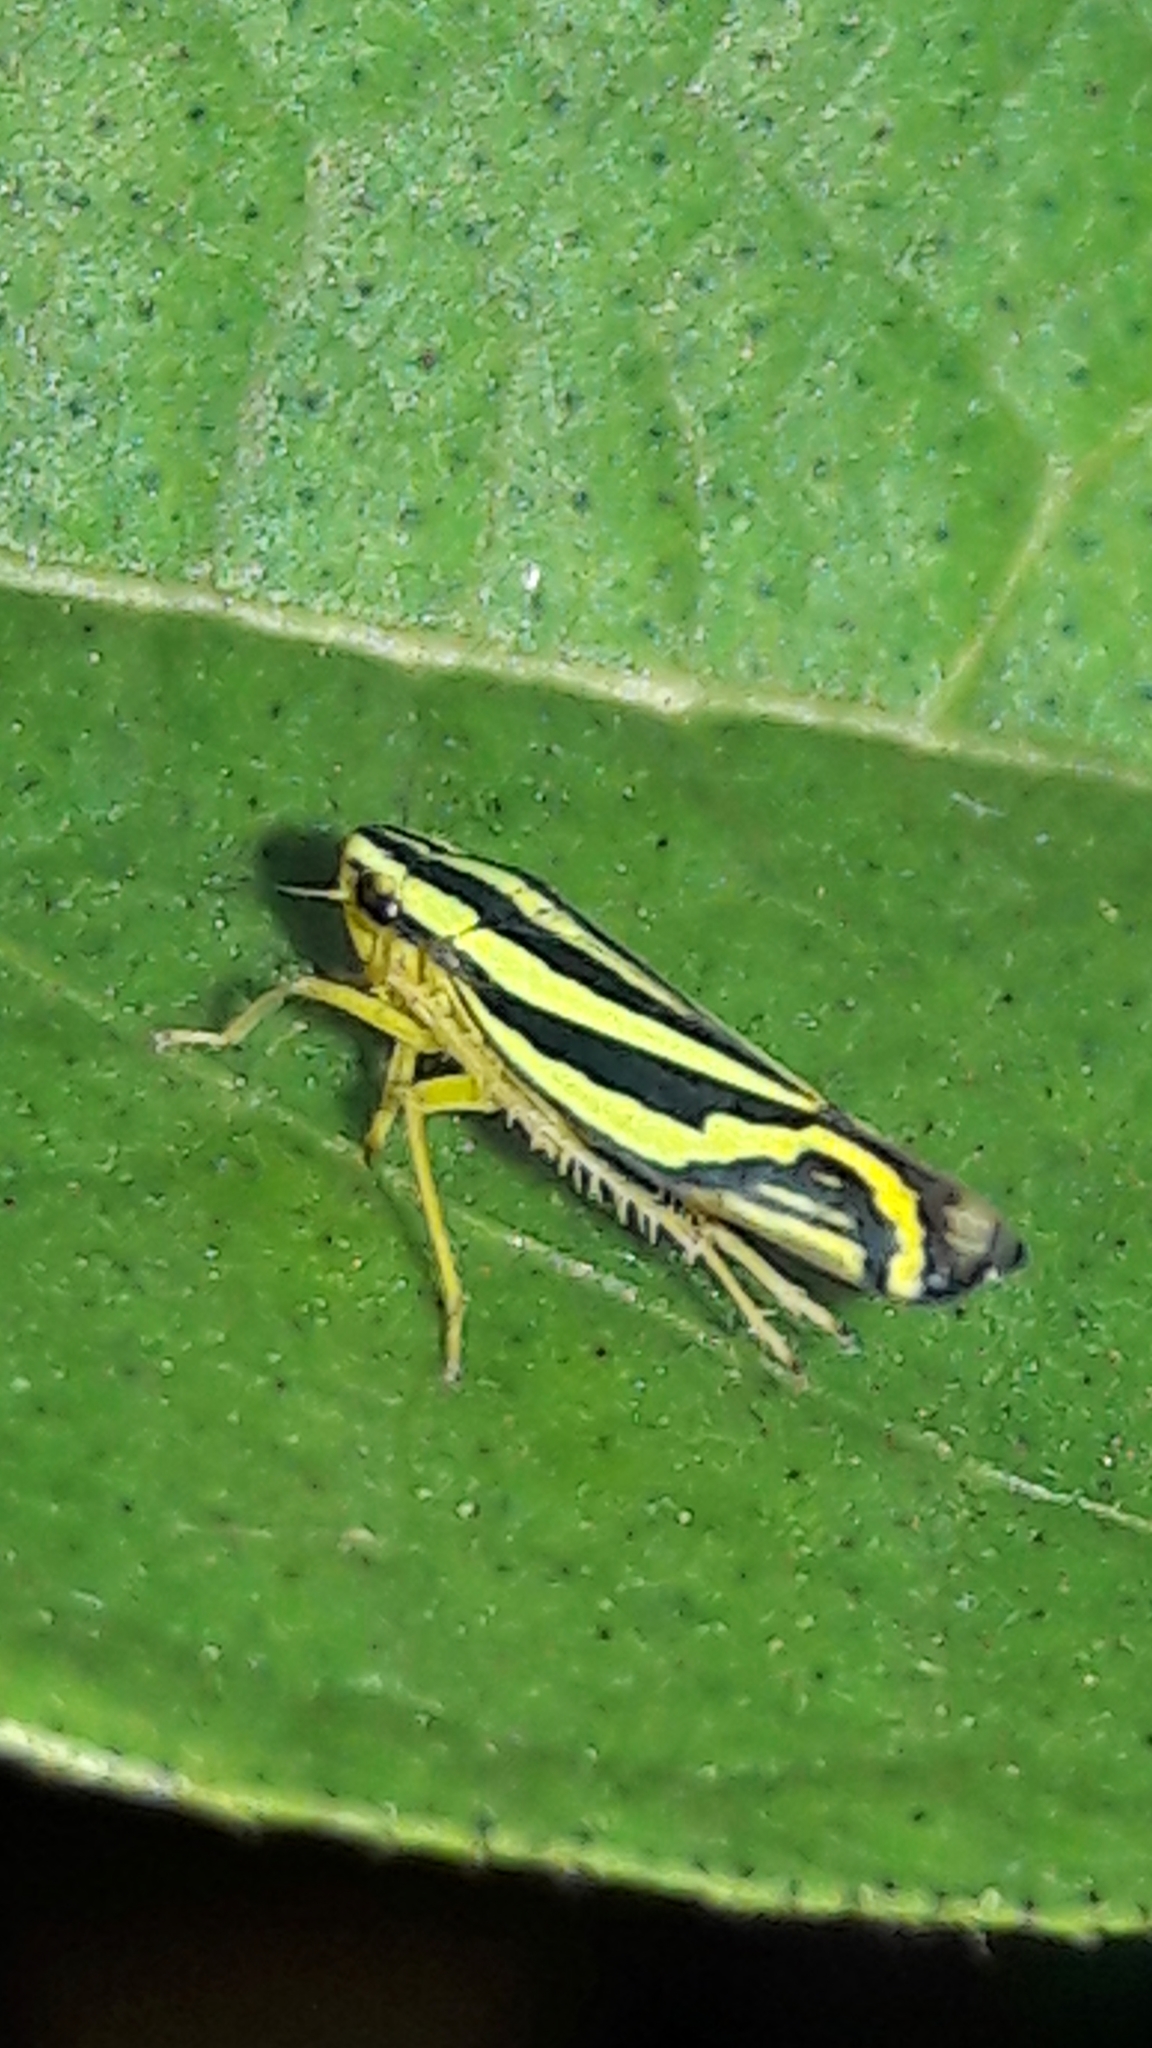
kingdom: Animalia
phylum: Arthropoda
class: Insecta
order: Hemiptera
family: Cicadellidae
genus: Sibovia
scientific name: Sibovia sagata
